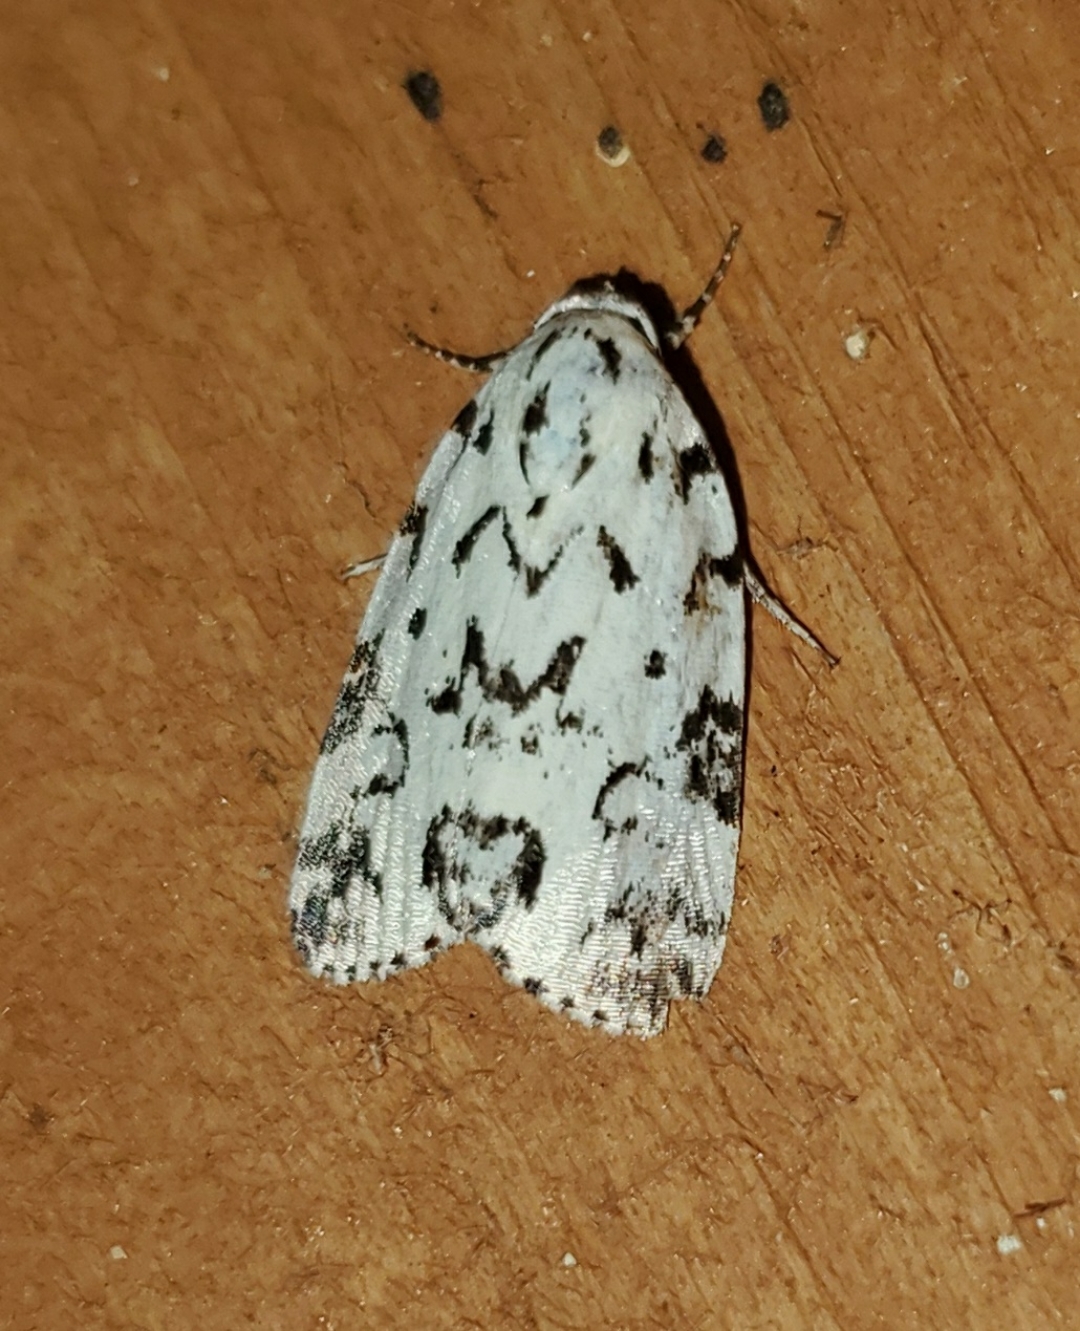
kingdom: Animalia
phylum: Arthropoda
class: Insecta
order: Lepidoptera
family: Noctuidae
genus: Polygrammate
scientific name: Polygrammate hebraeicum
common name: Hebrew moth
